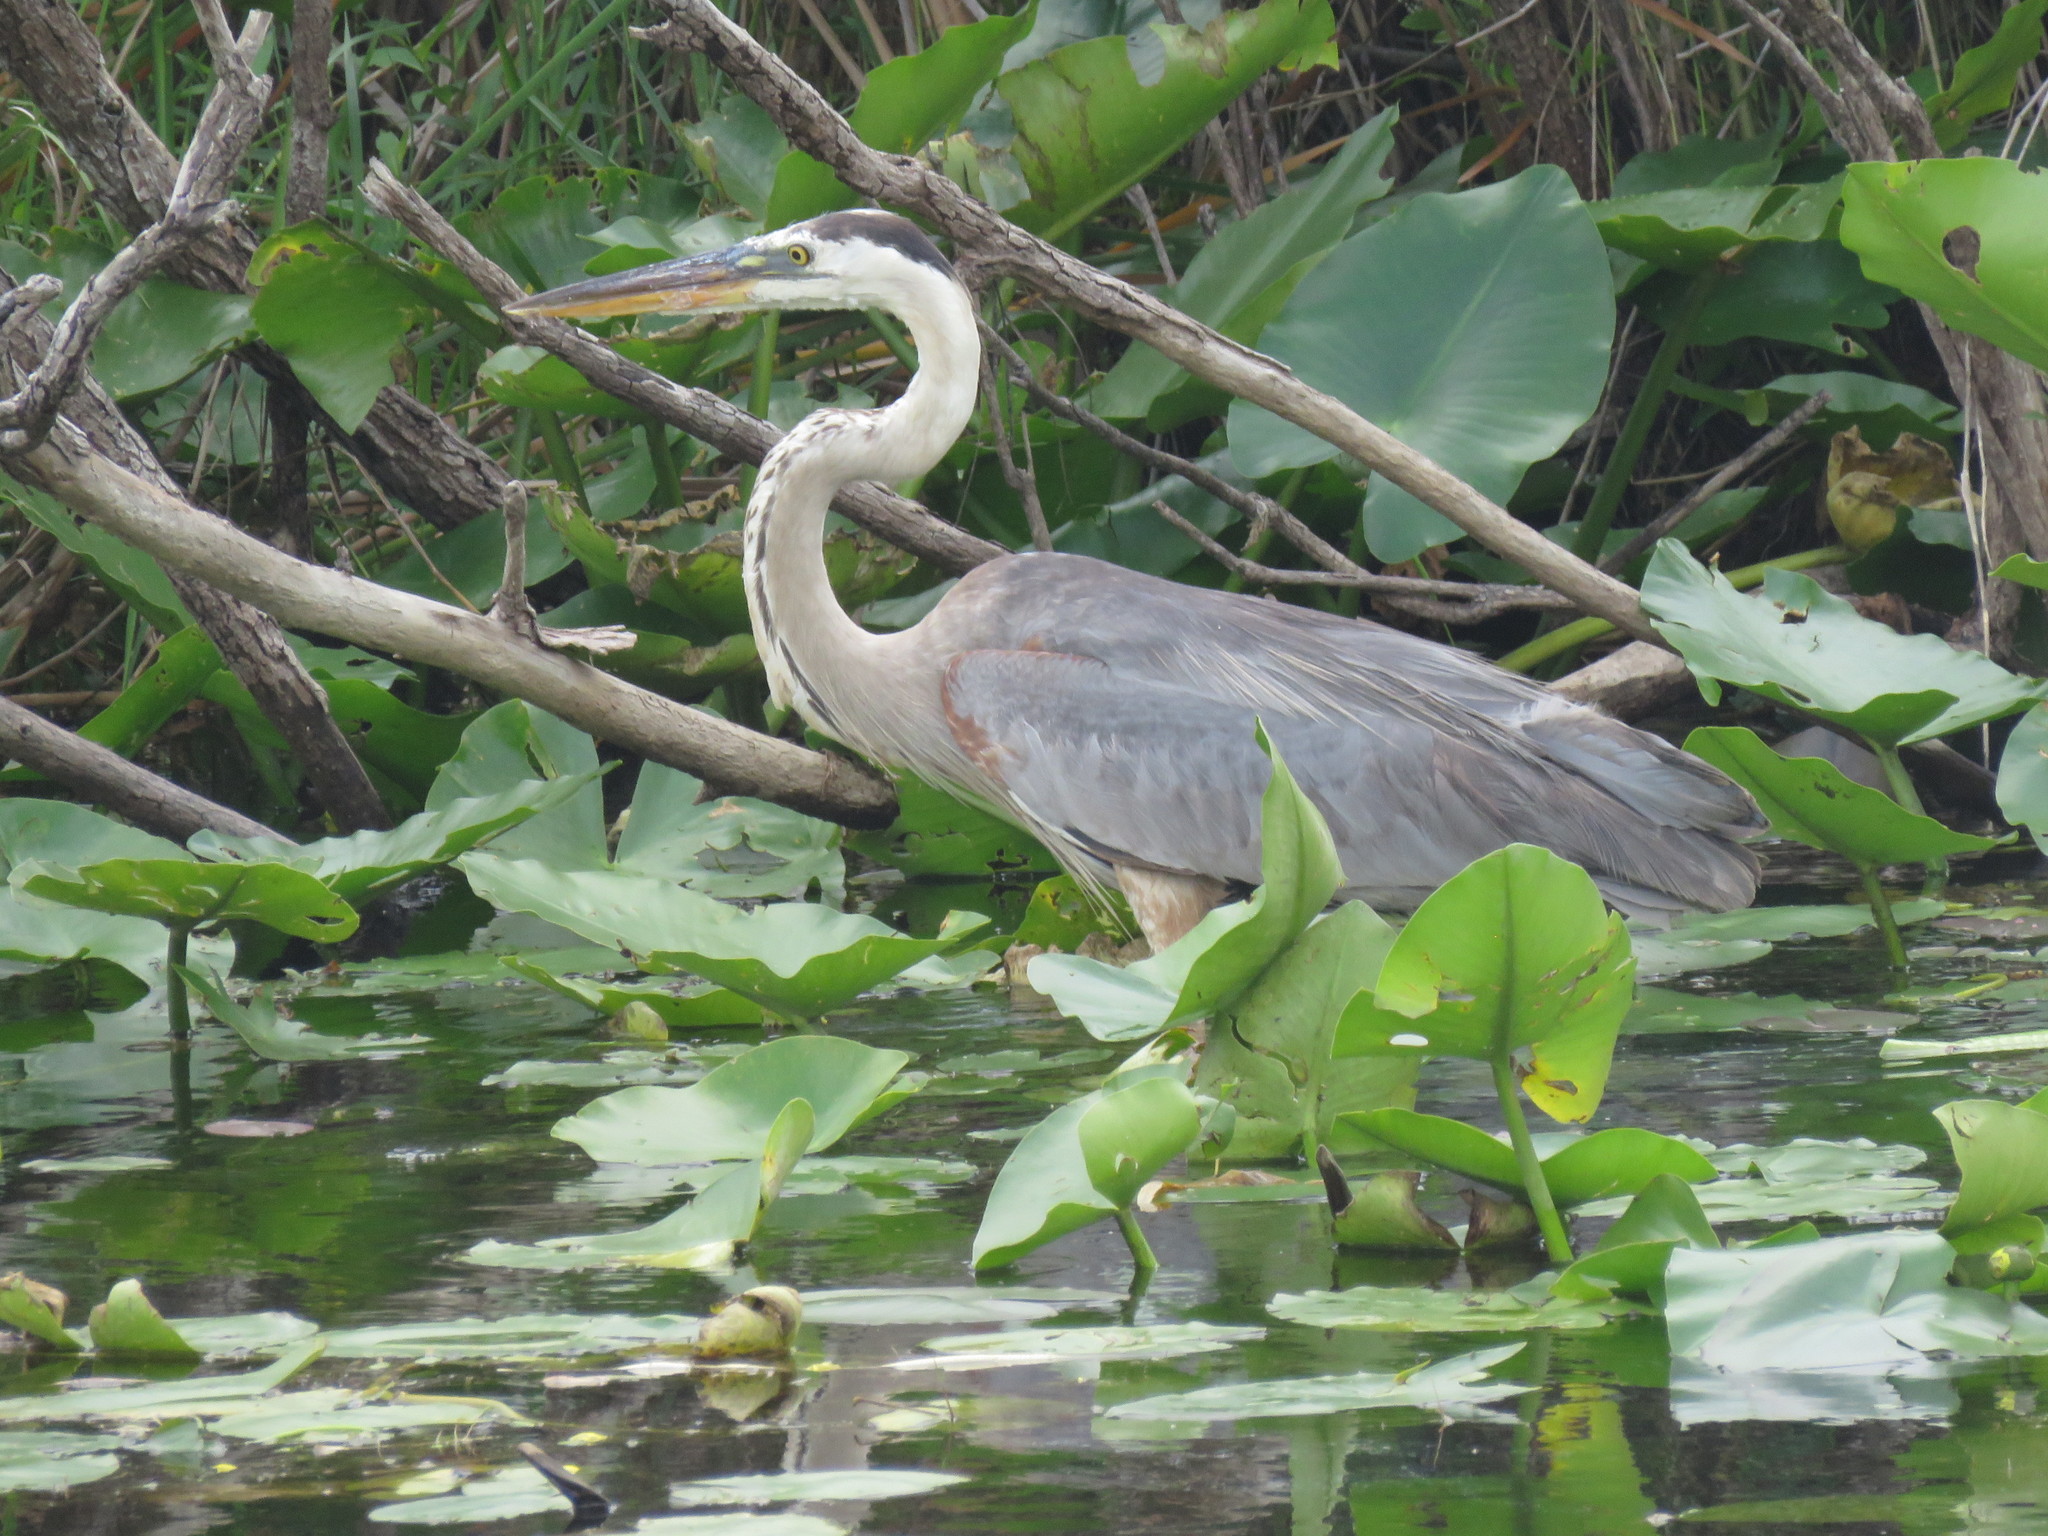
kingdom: Animalia
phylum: Chordata
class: Aves
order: Pelecaniformes
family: Ardeidae
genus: Ardea
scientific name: Ardea herodias
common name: Great blue heron
